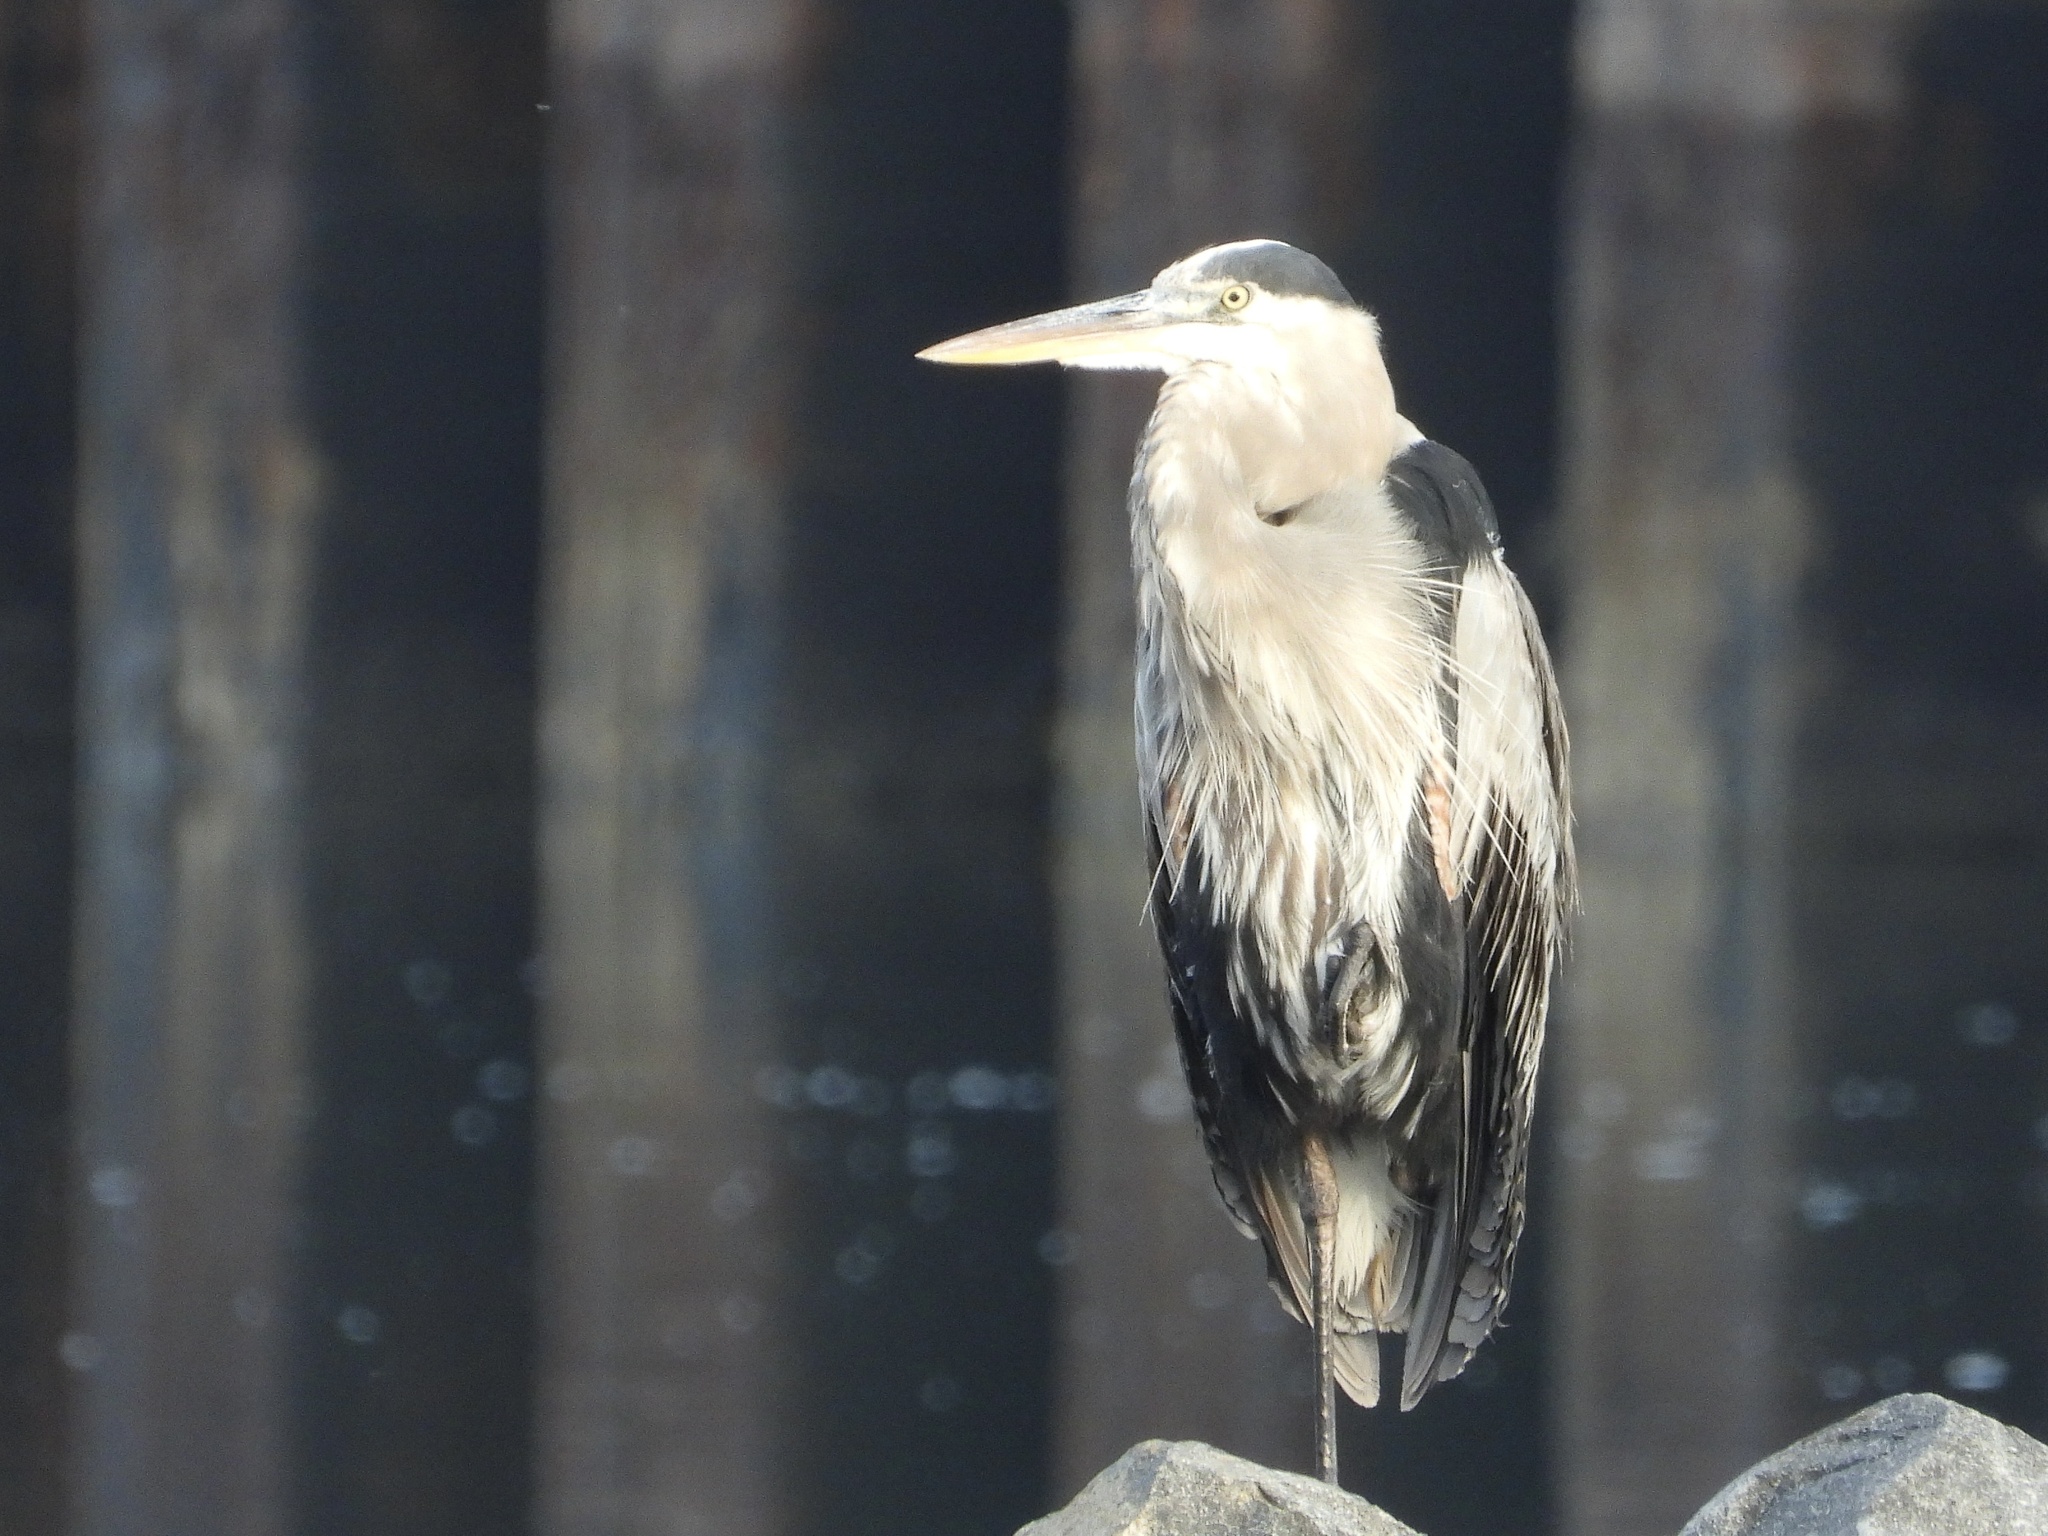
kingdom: Animalia
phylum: Chordata
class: Aves
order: Pelecaniformes
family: Ardeidae
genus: Ardea
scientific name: Ardea herodias
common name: Great blue heron
